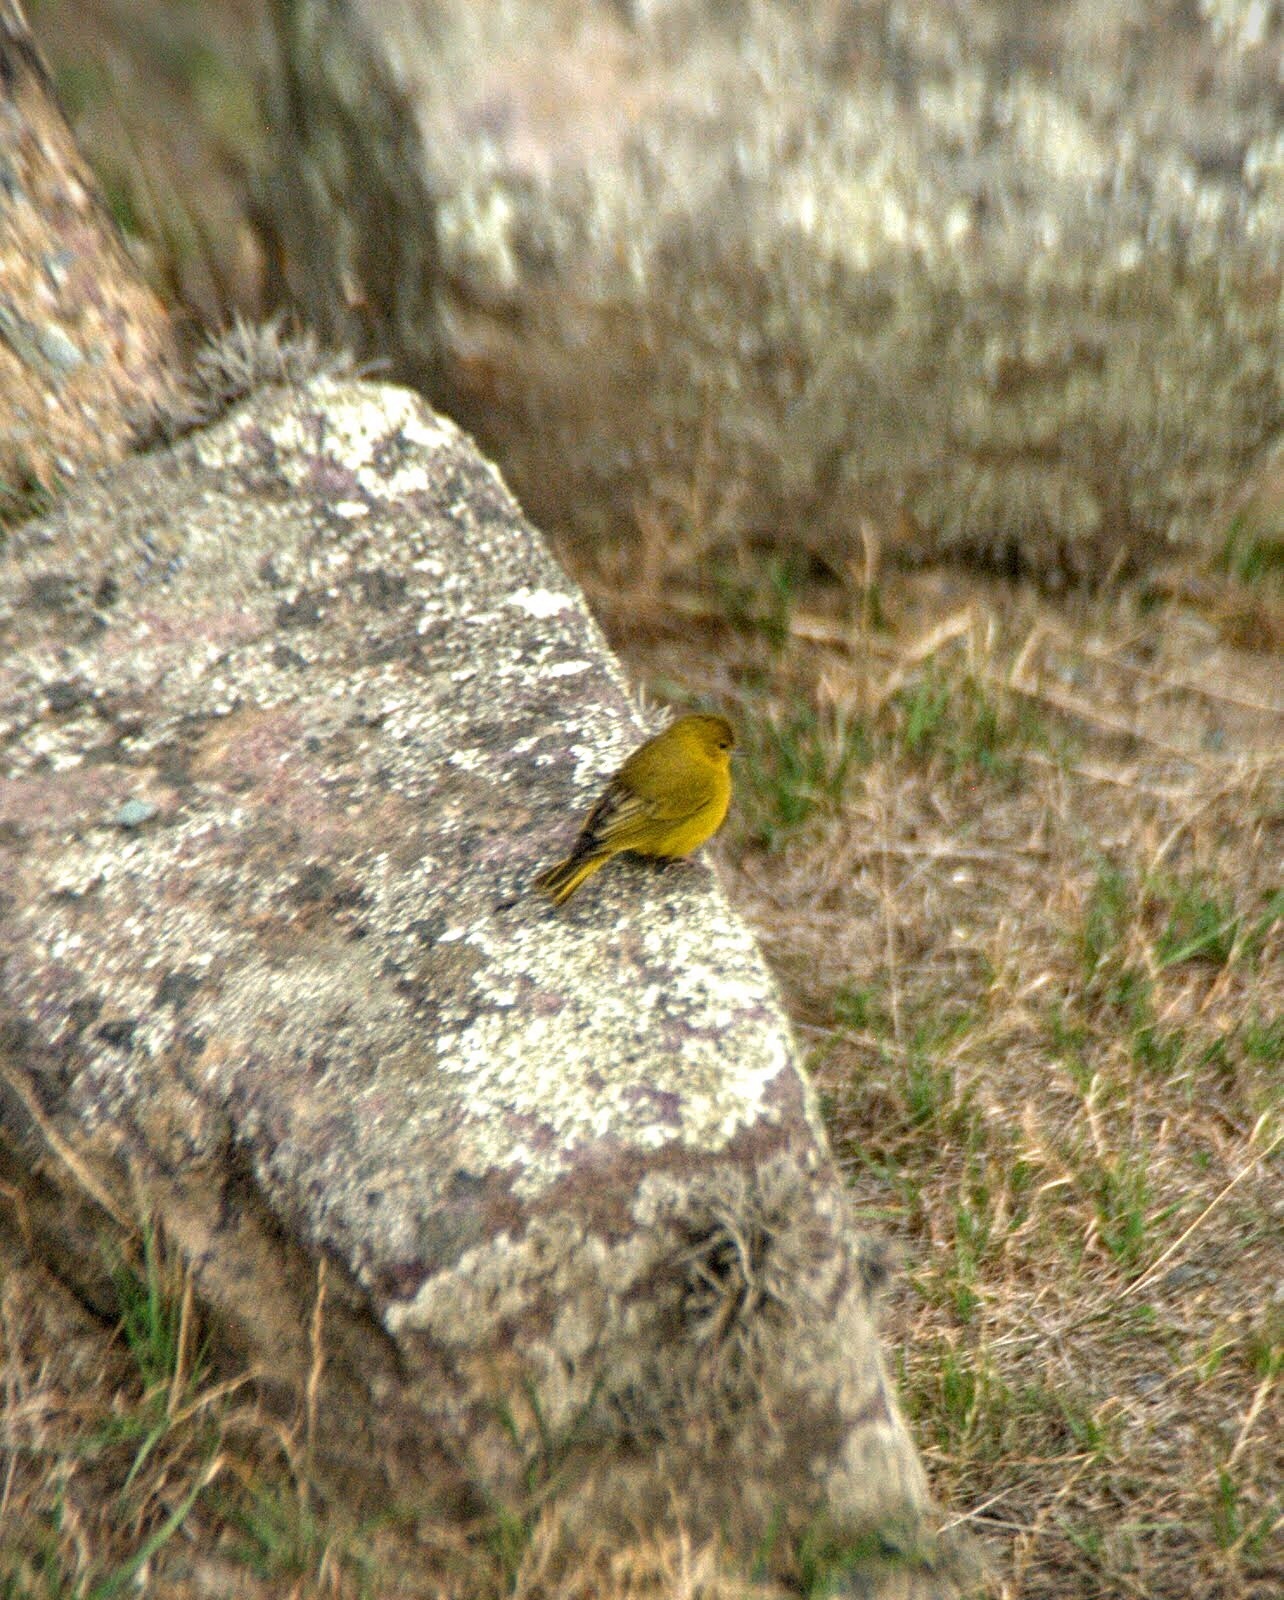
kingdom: Animalia
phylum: Chordata
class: Aves
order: Passeriformes
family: Thraupidae
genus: Sicalis
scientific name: Sicalis olivascens
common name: Greenish yellow finch
